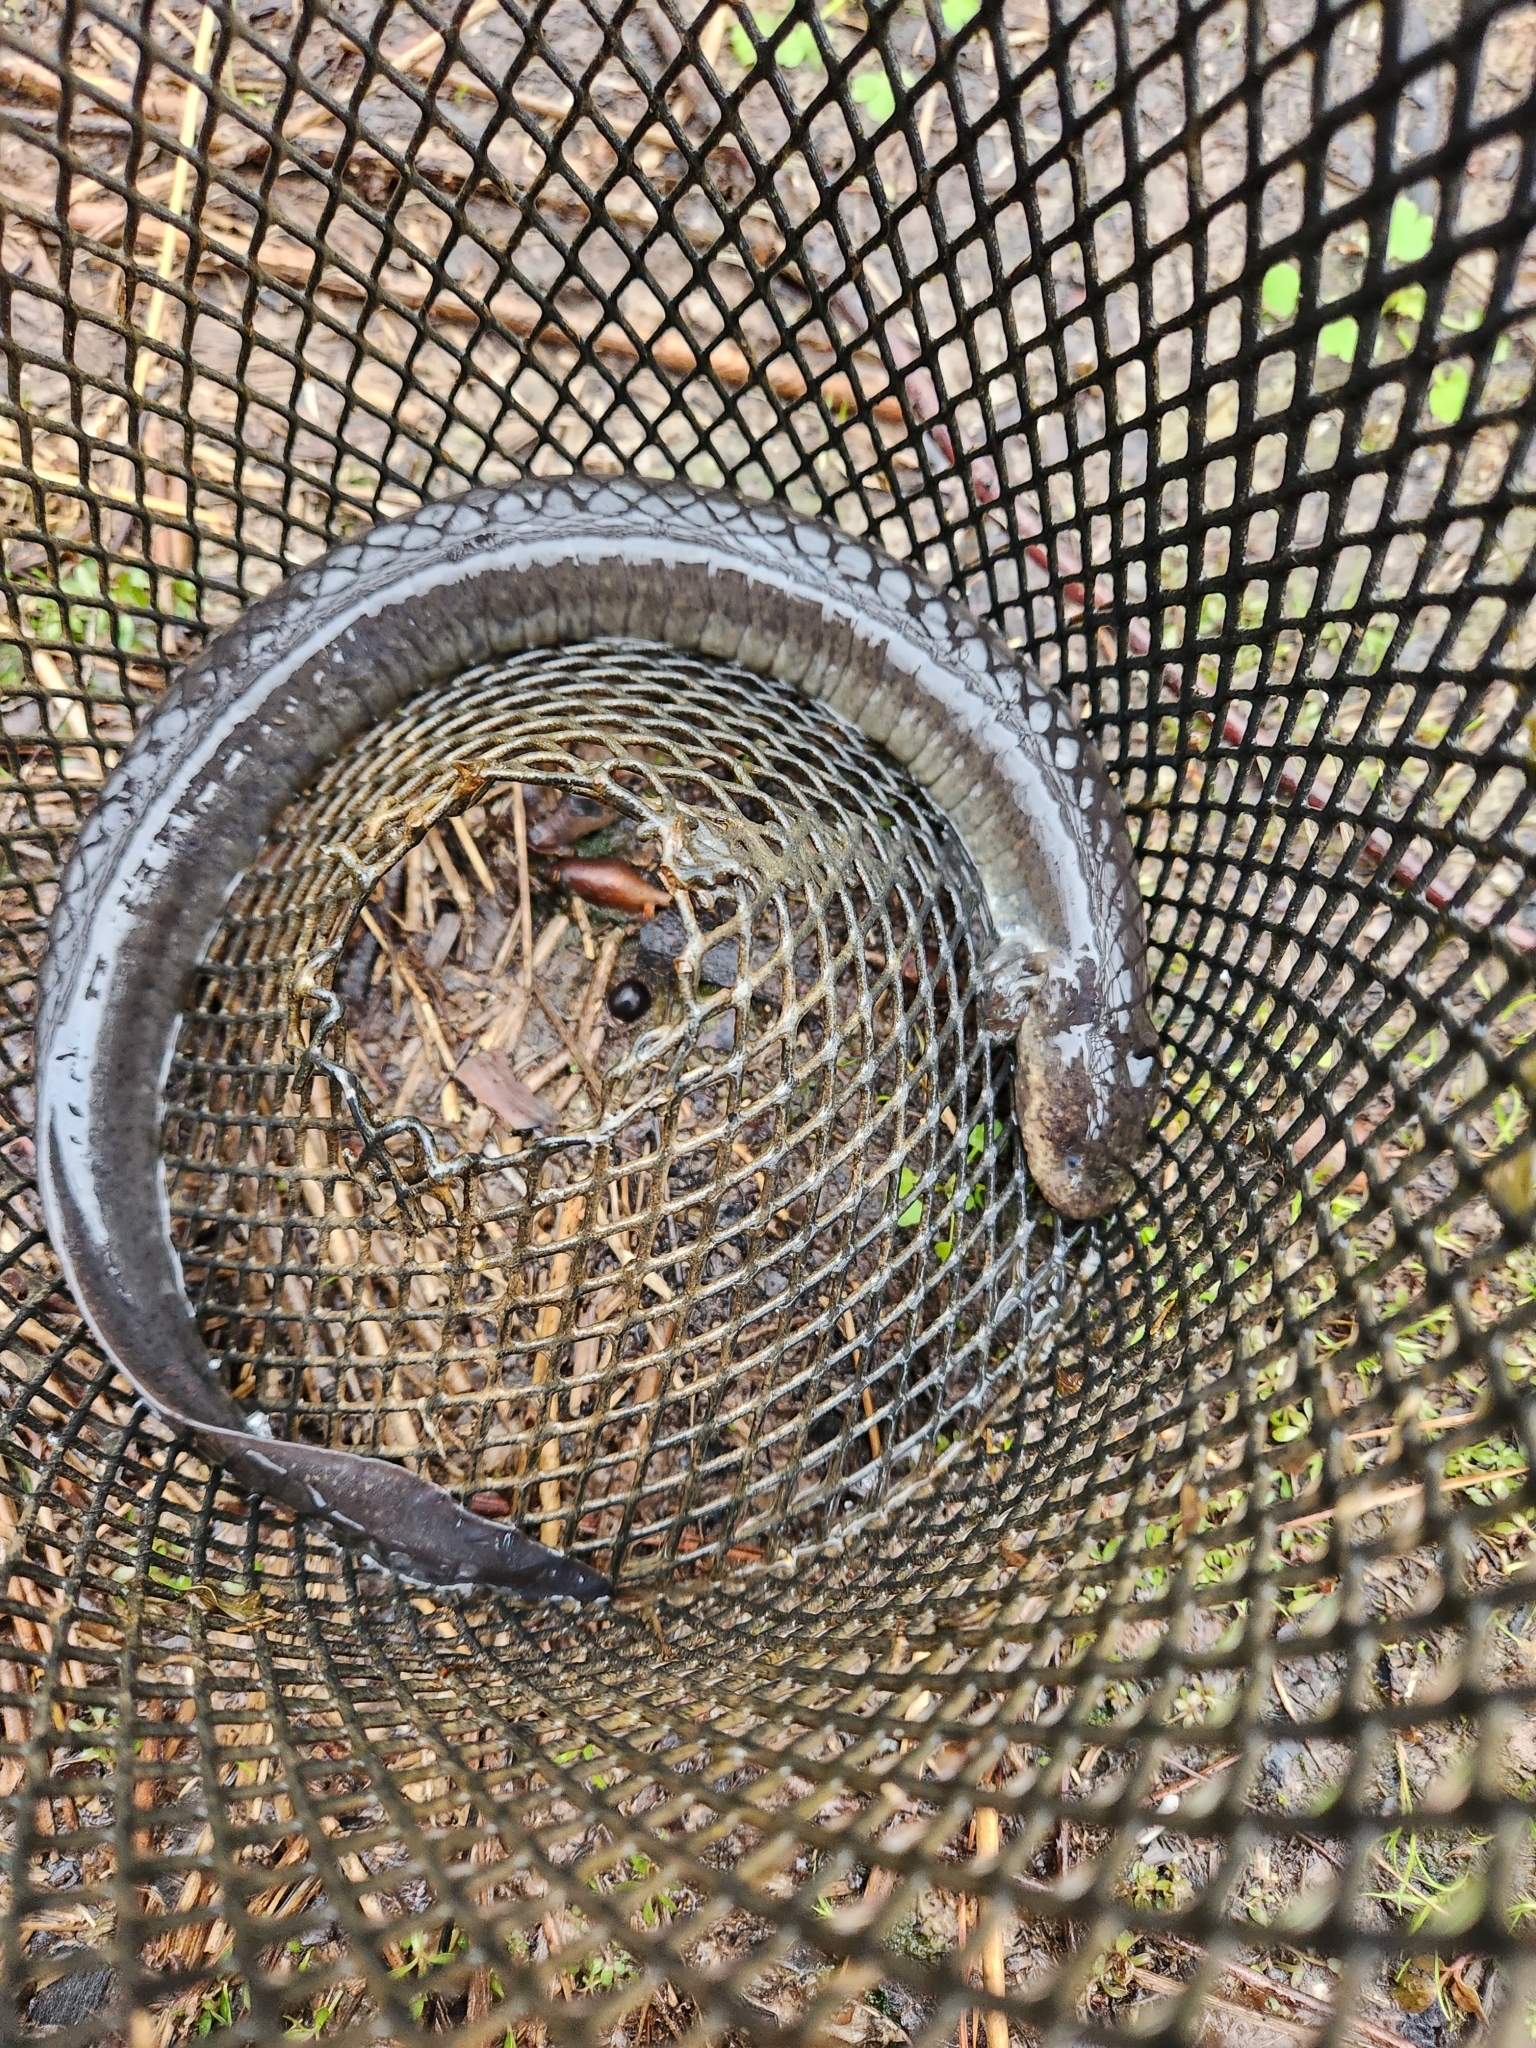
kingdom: Animalia
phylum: Chordata
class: Amphibia
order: Caudata
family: Sirenidae
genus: Siren
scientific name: Siren intermedia
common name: Lesser siren
